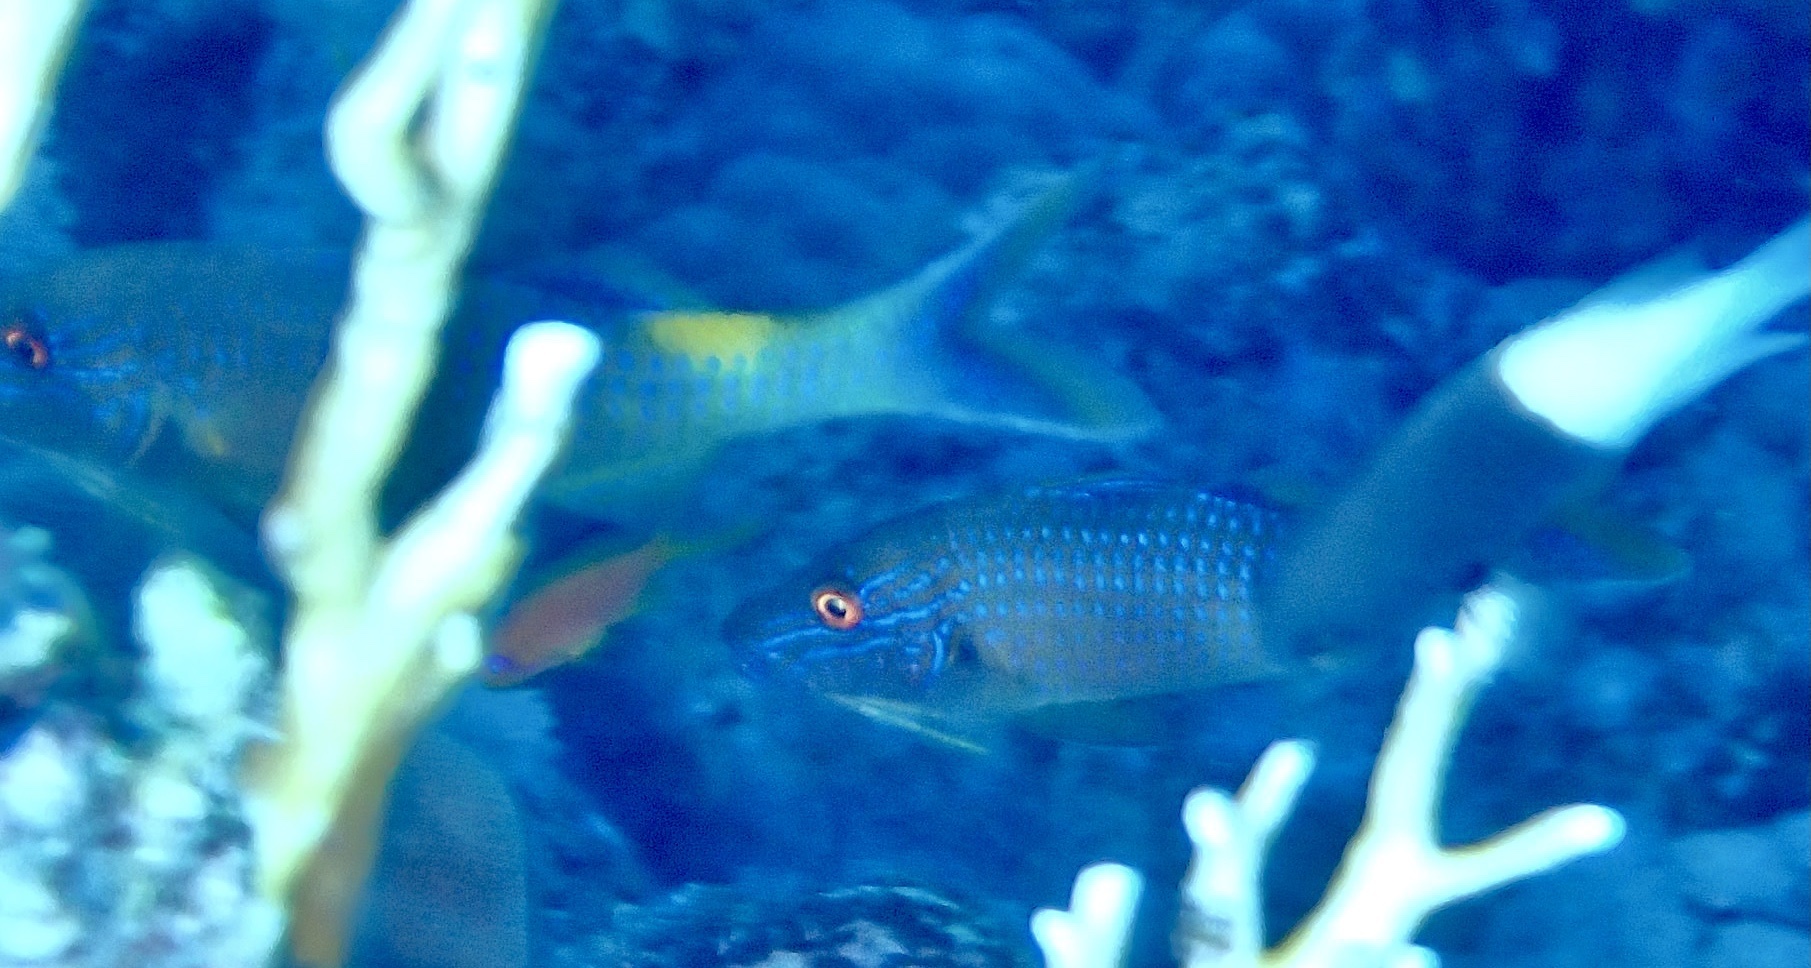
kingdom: Animalia
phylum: Chordata
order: Perciformes
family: Mullidae
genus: Parupeneus
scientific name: Parupeneus cyclostomus
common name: Goldsaddle goatfish
